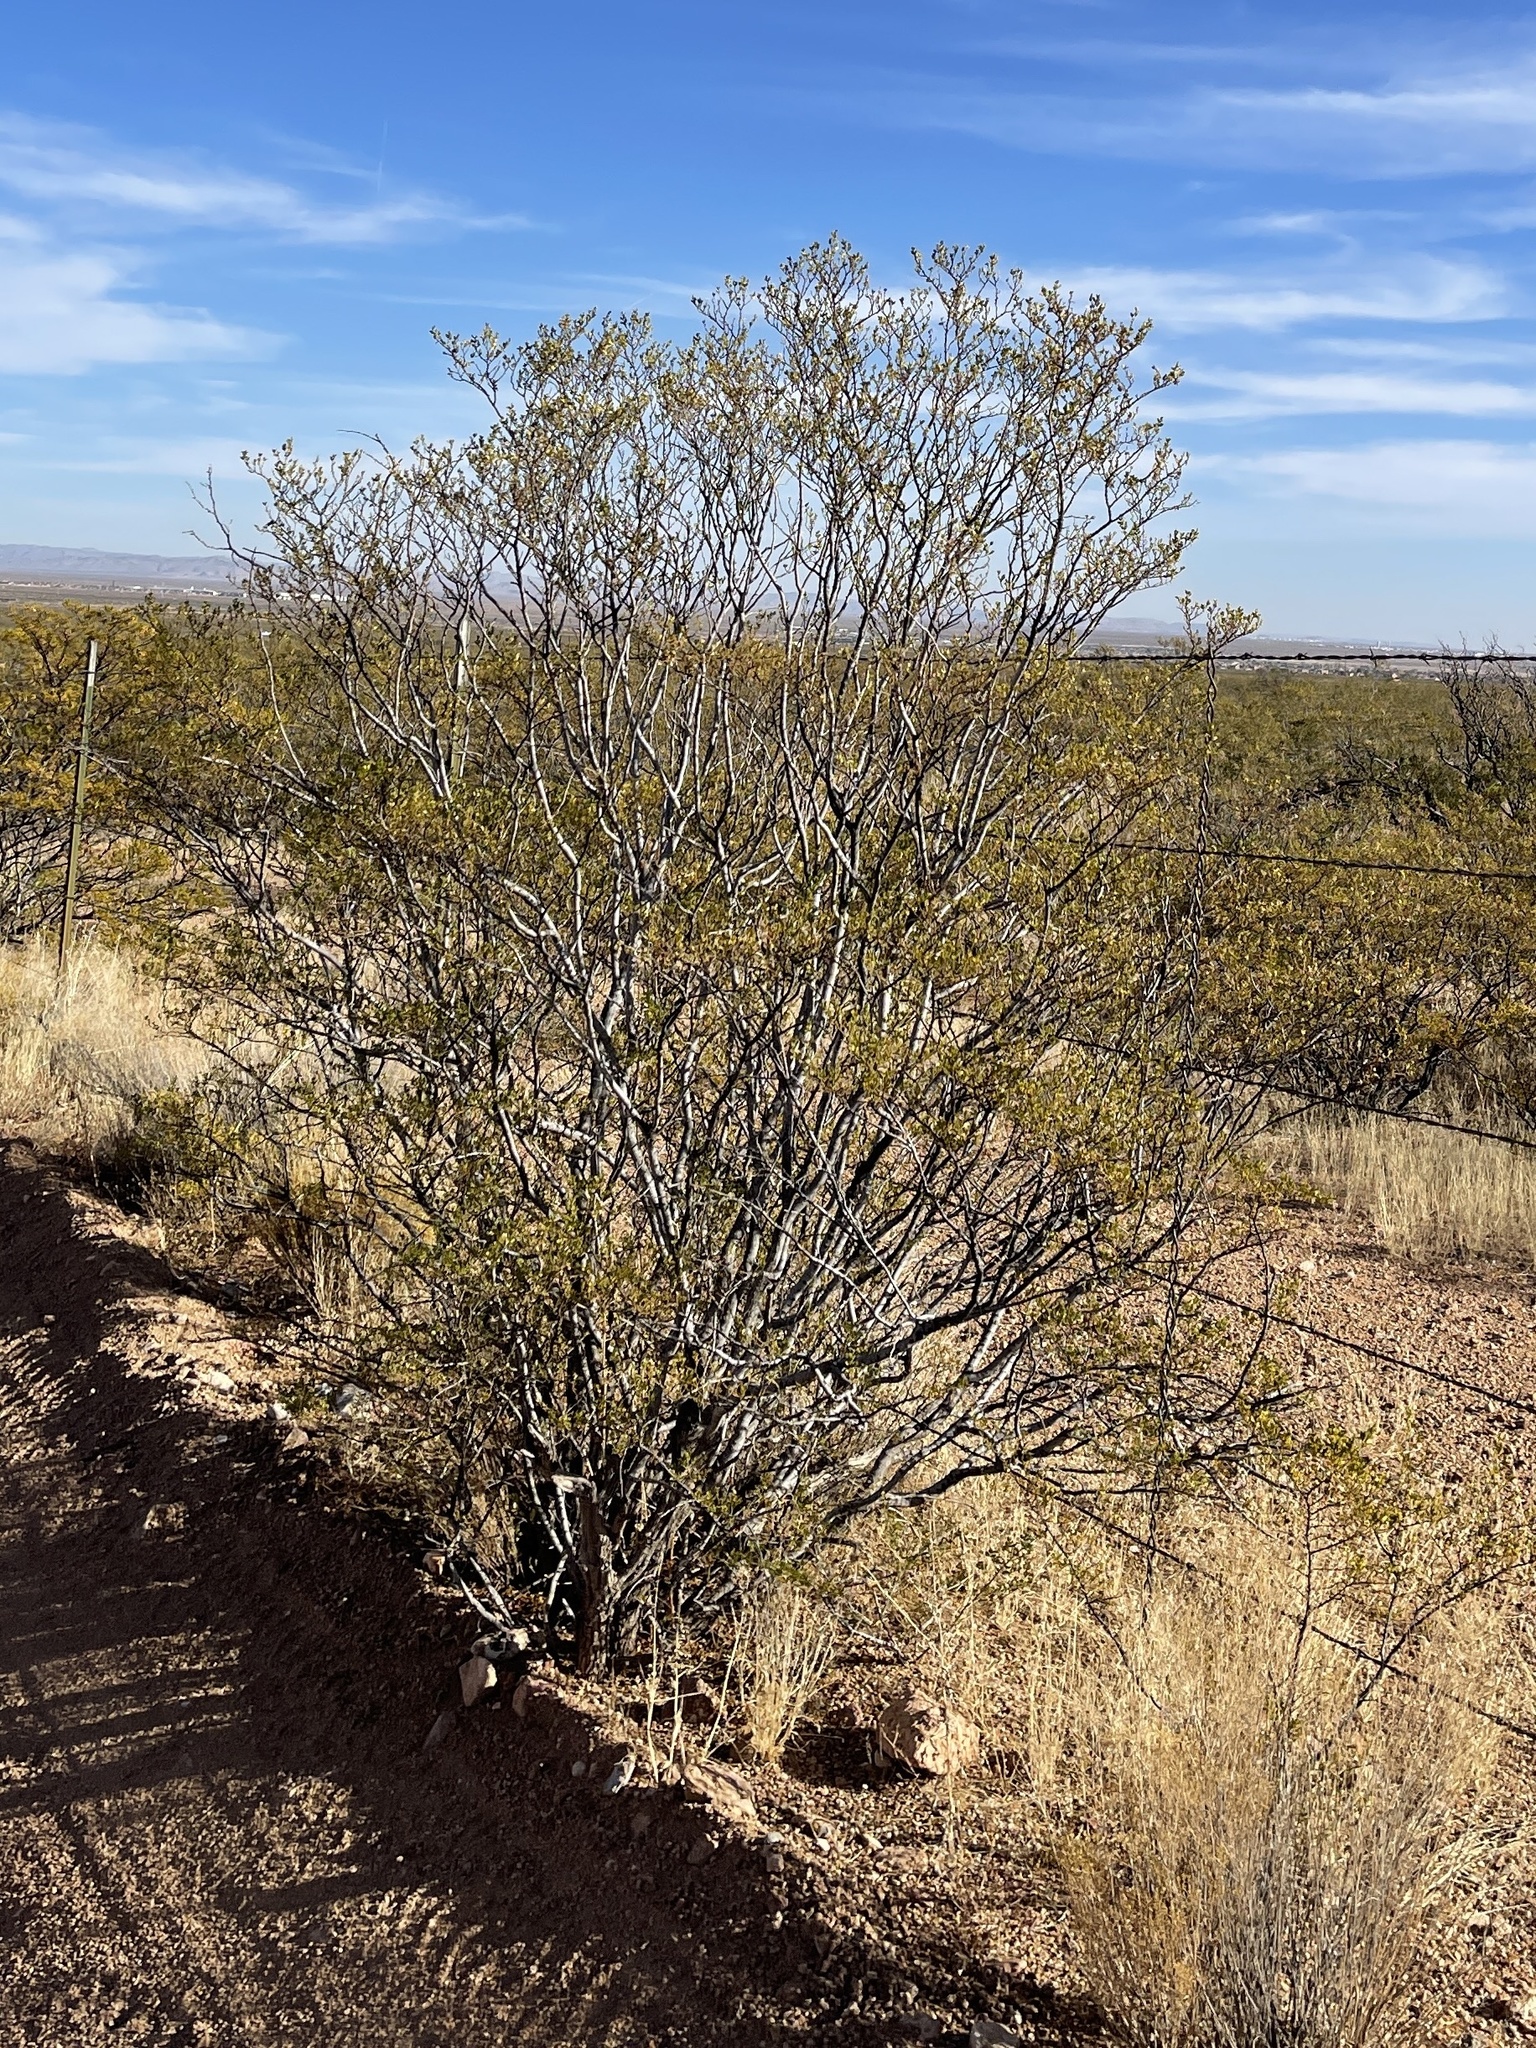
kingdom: Plantae
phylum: Tracheophyta
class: Magnoliopsida
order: Zygophyllales
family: Zygophyllaceae
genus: Larrea
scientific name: Larrea tridentata
